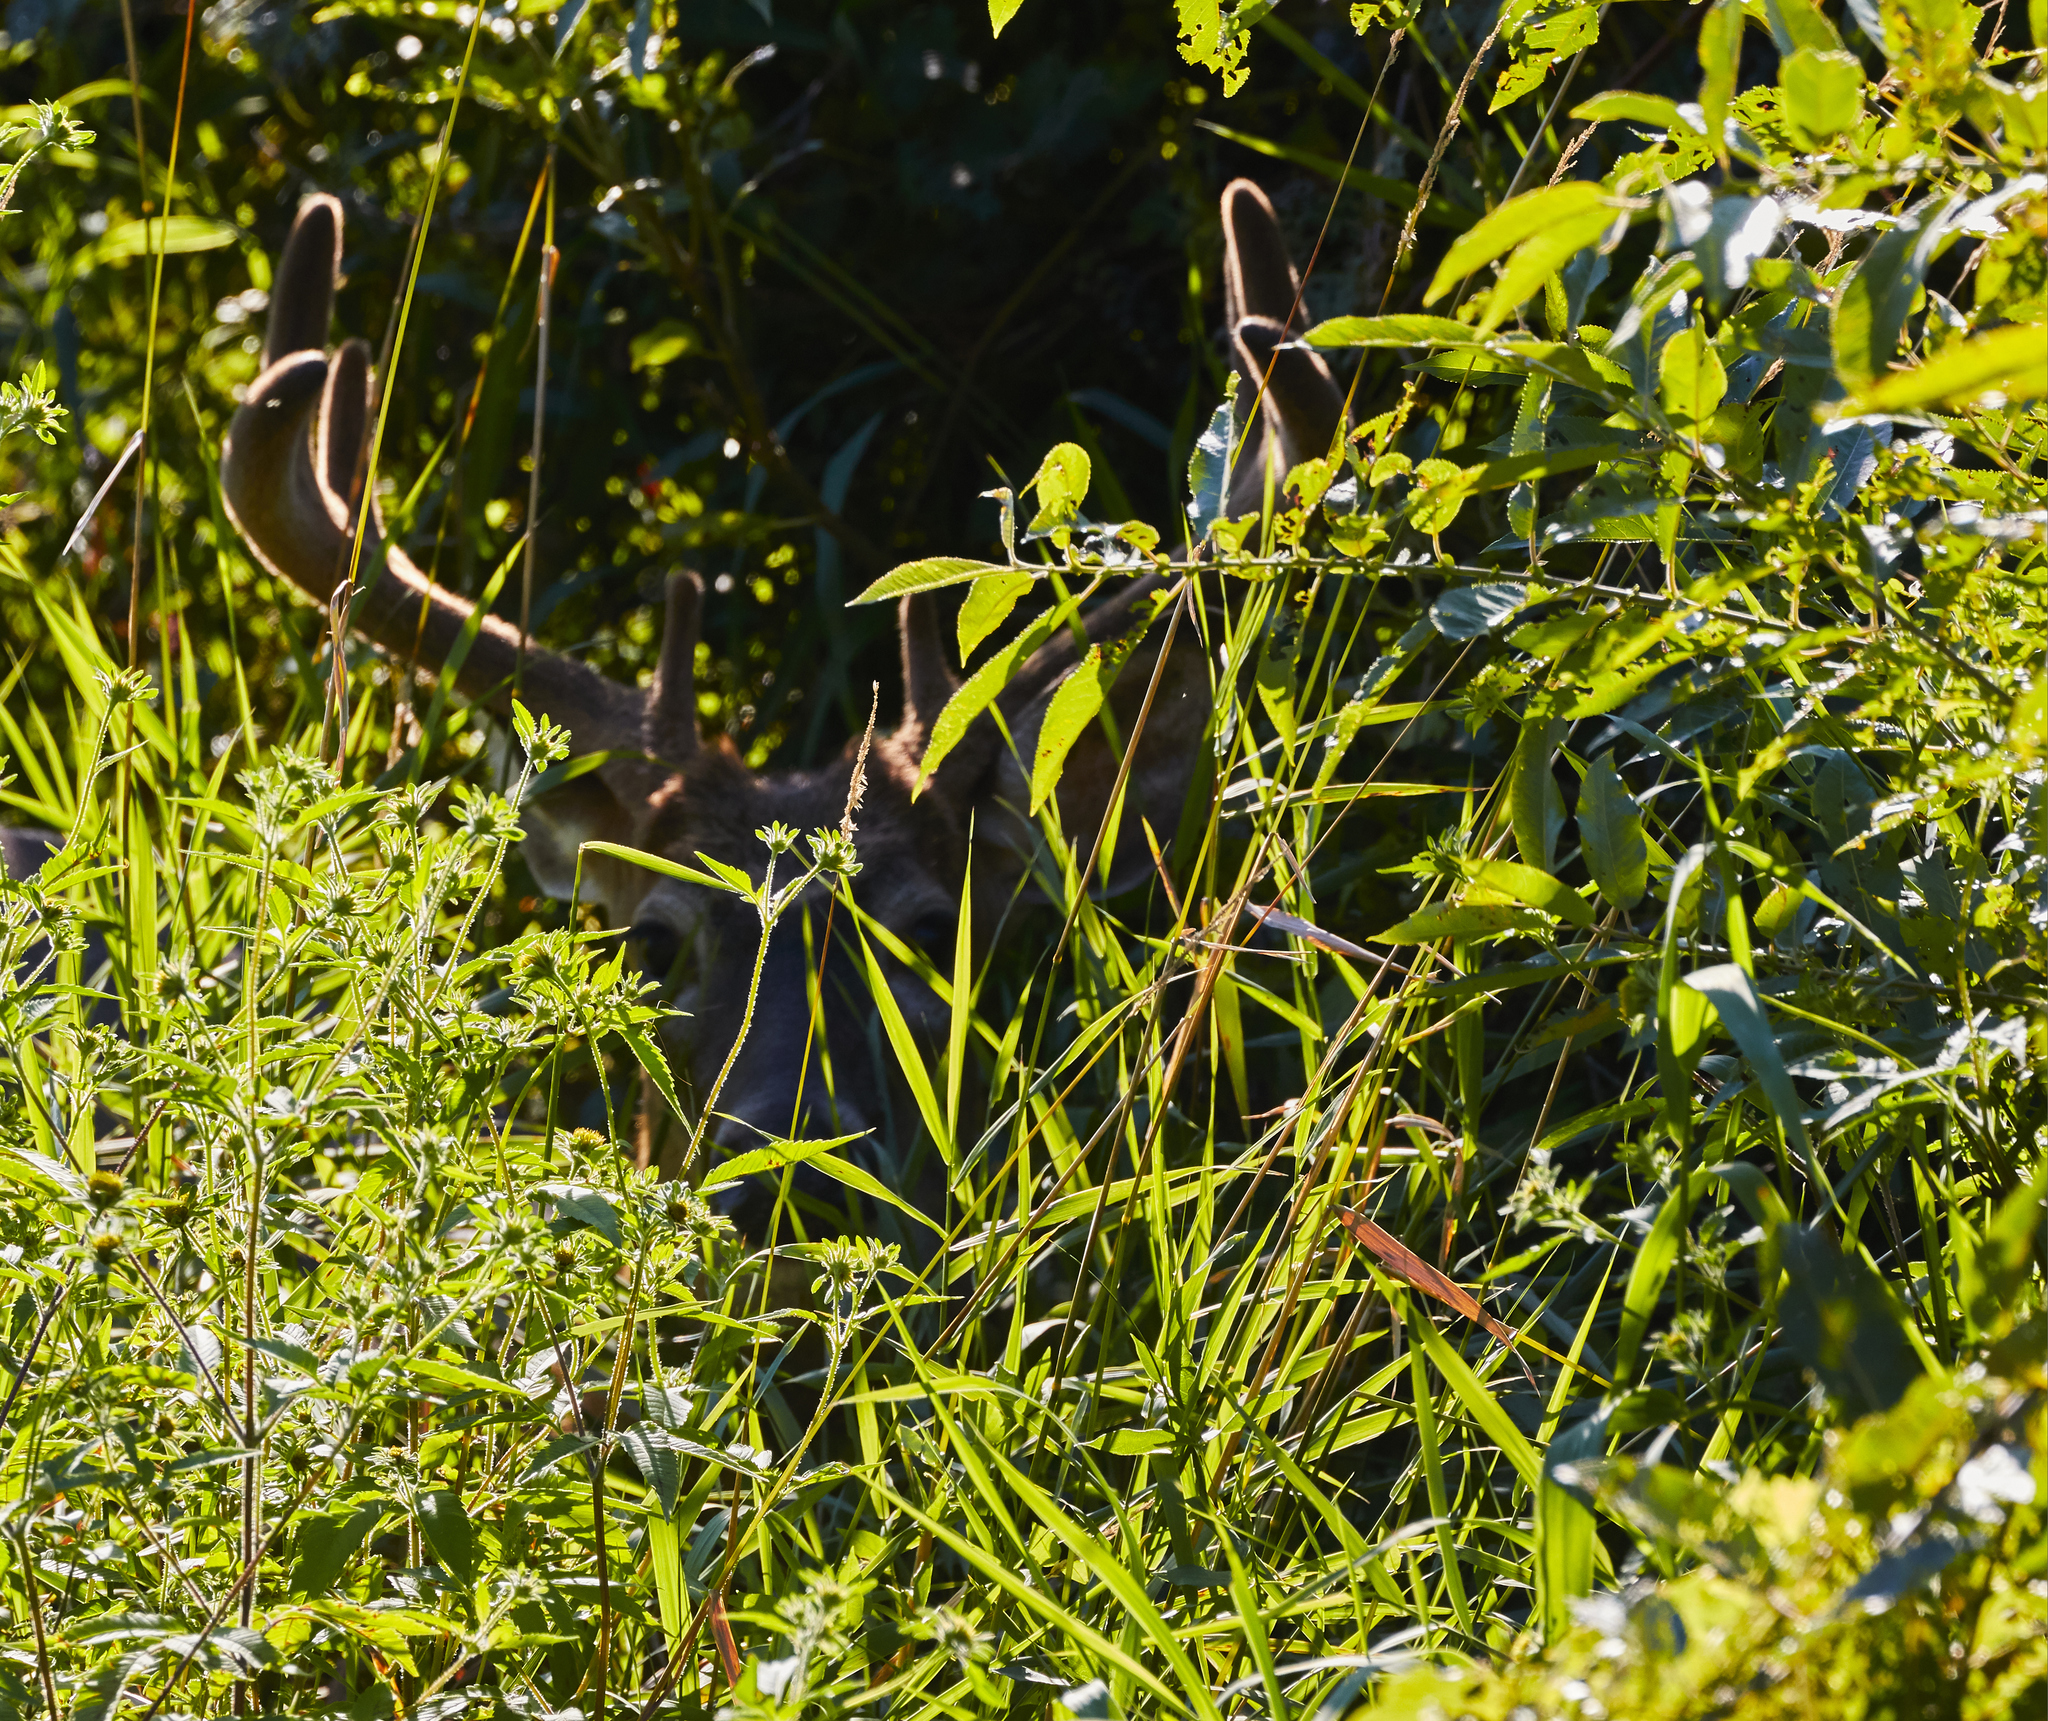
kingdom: Animalia
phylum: Chordata
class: Mammalia
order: Artiodactyla
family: Cervidae
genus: Odocoileus
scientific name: Odocoileus virginianus
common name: White-tailed deer
